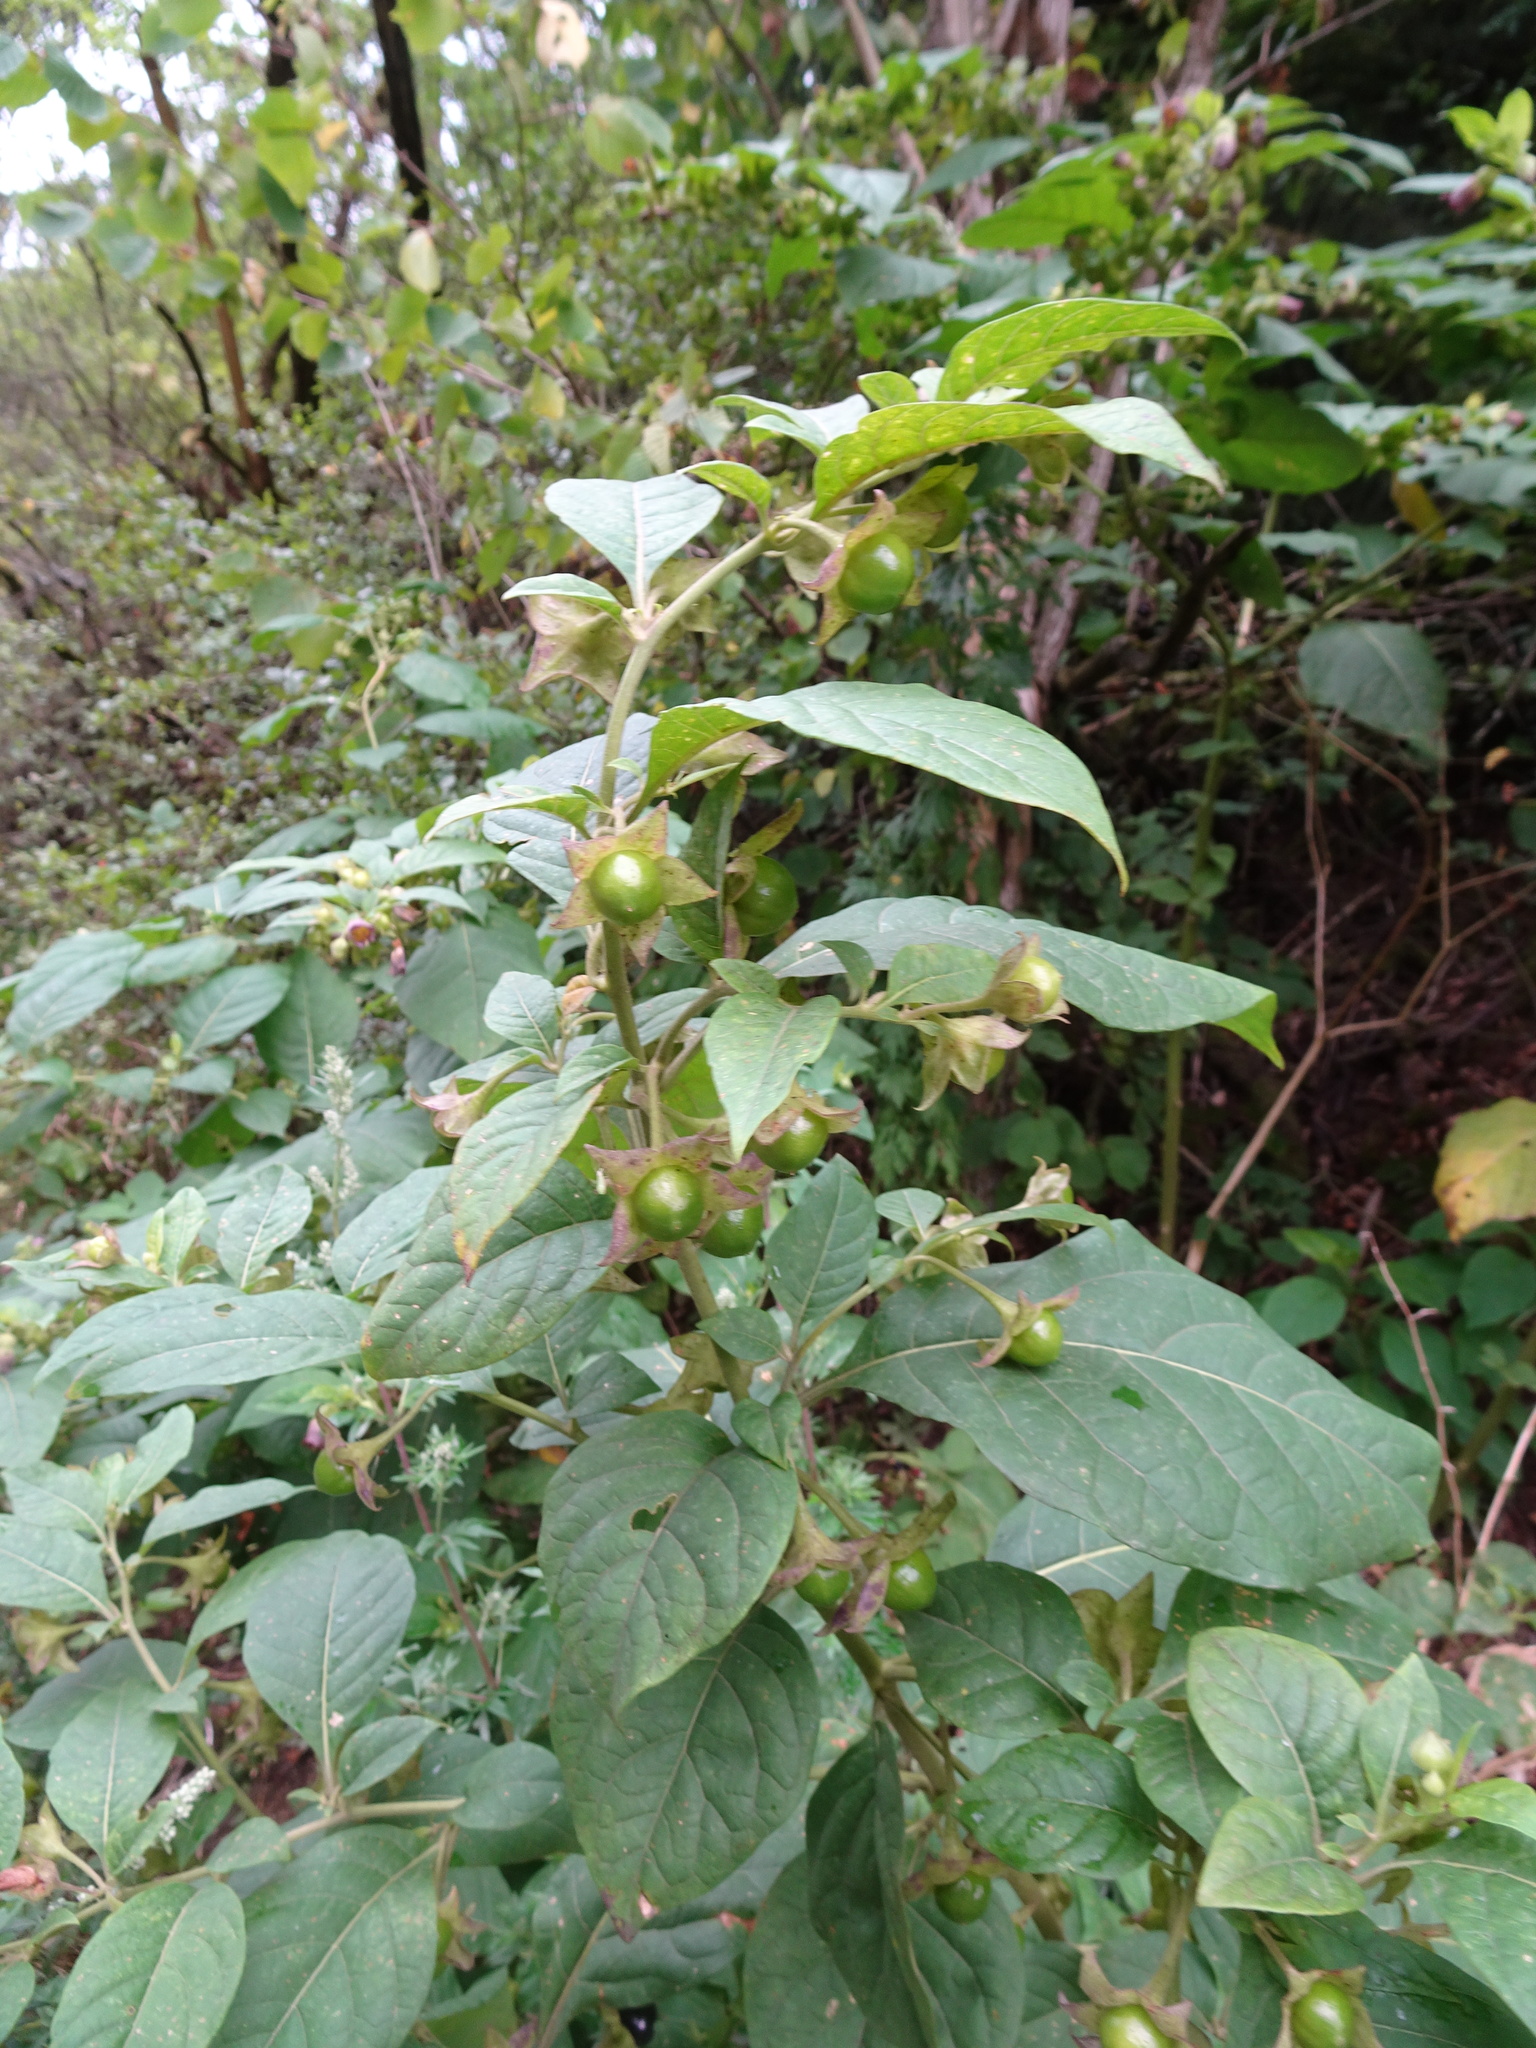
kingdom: Plantae
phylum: Tracheophyta
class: Magnoliopsida
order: Solanales
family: Solanaceae
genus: Atropa
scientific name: Atropa belladonna
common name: Deadly nightshade
